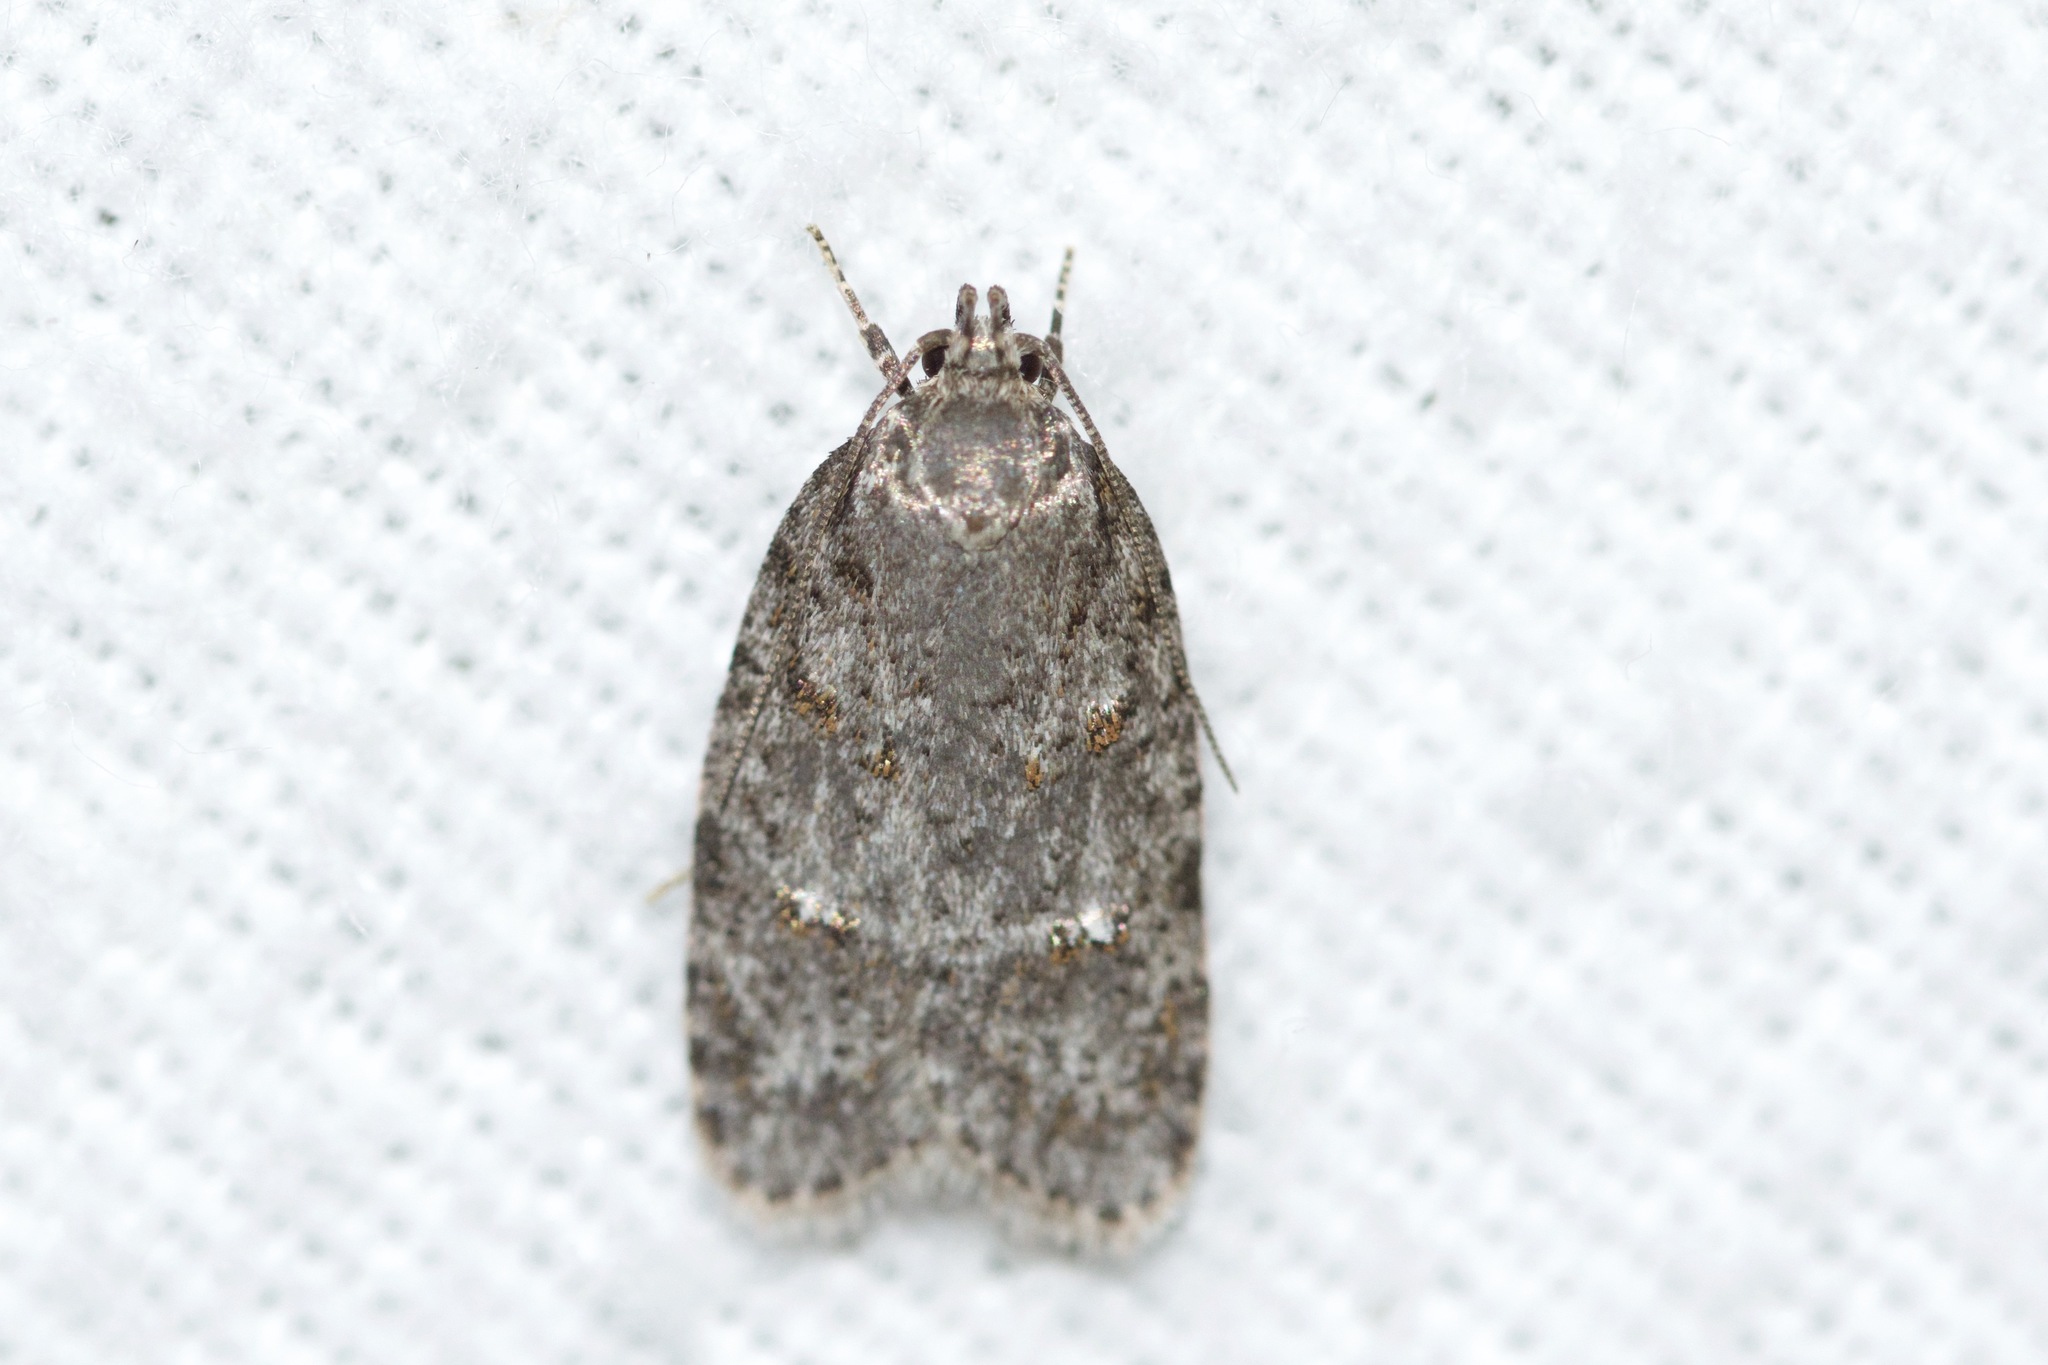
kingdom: Animalia
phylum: Arthropoda
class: Insecta
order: Lepidoptera
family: Depressariidae
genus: Bibarrambla
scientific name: Bibarrambla allenella
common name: Bog bibarrambla moth
